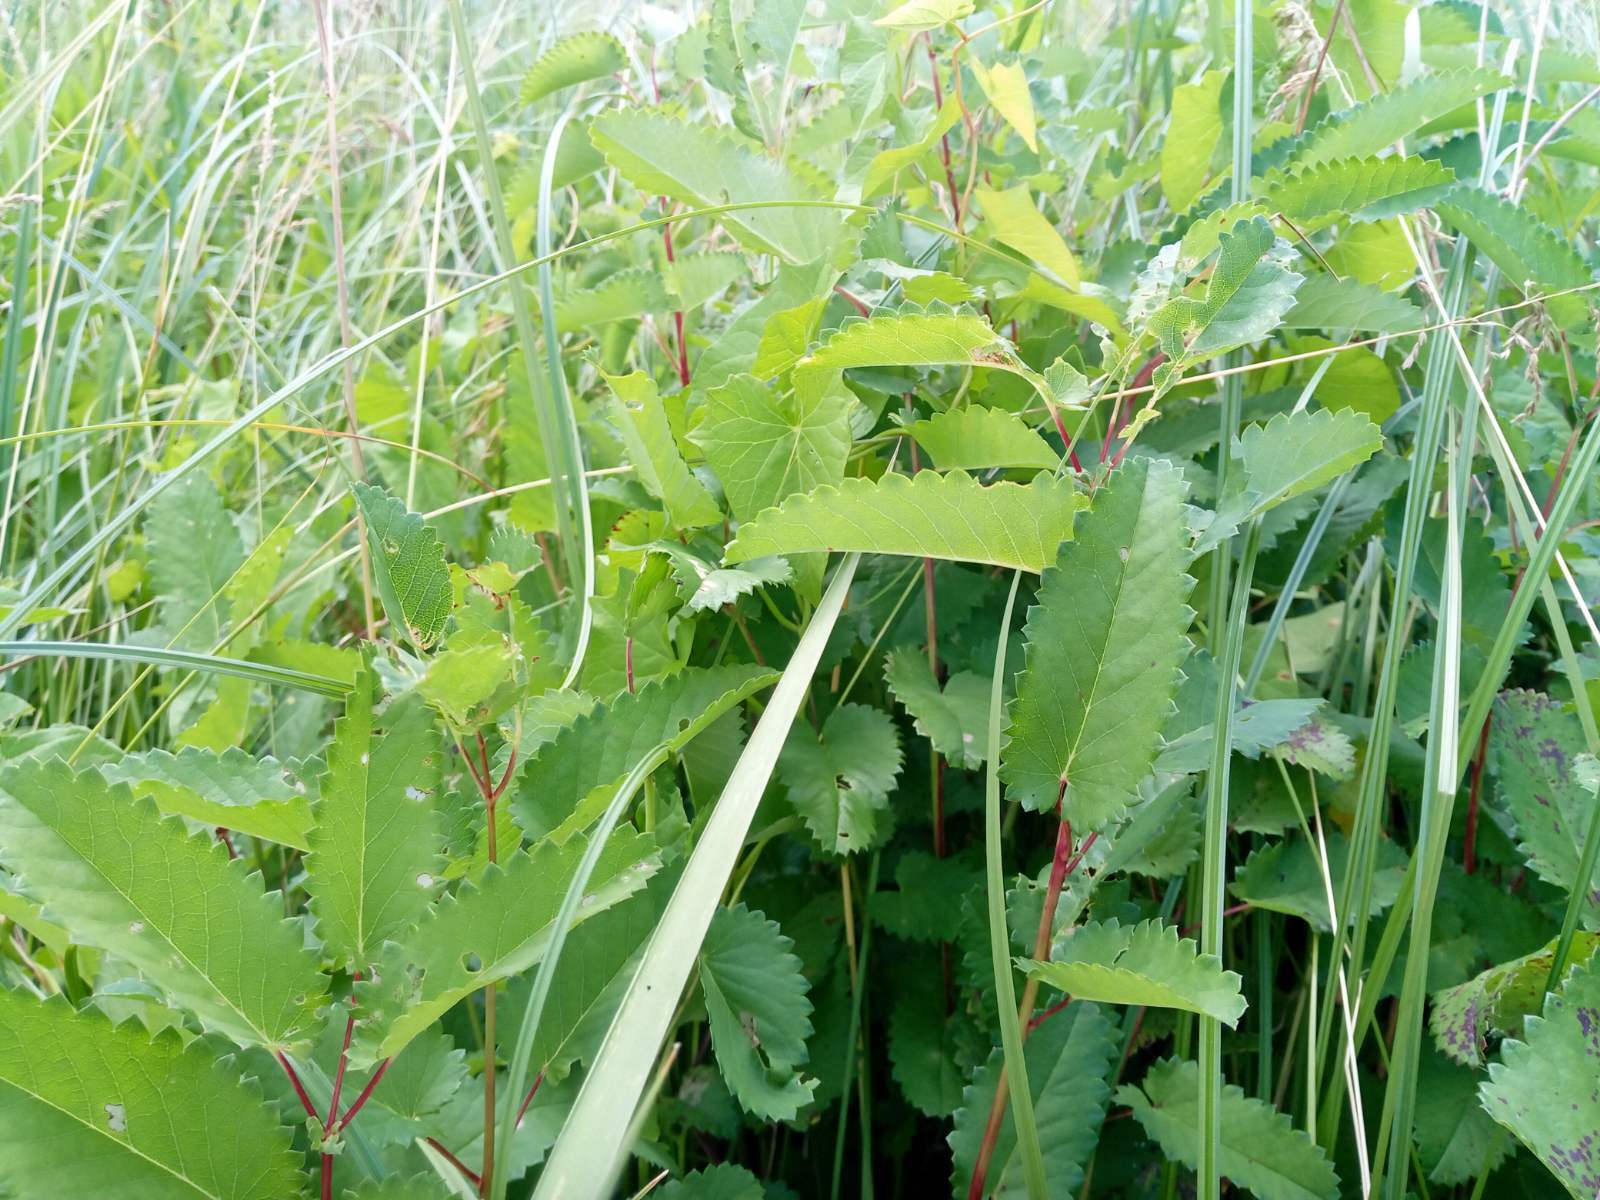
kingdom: Plantae
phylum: Tracheophyta
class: Magnoliopsida
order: Rosales
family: Rosaceae
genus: Sanguisorba
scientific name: Sanguisorba officinalis
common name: Great burnet
